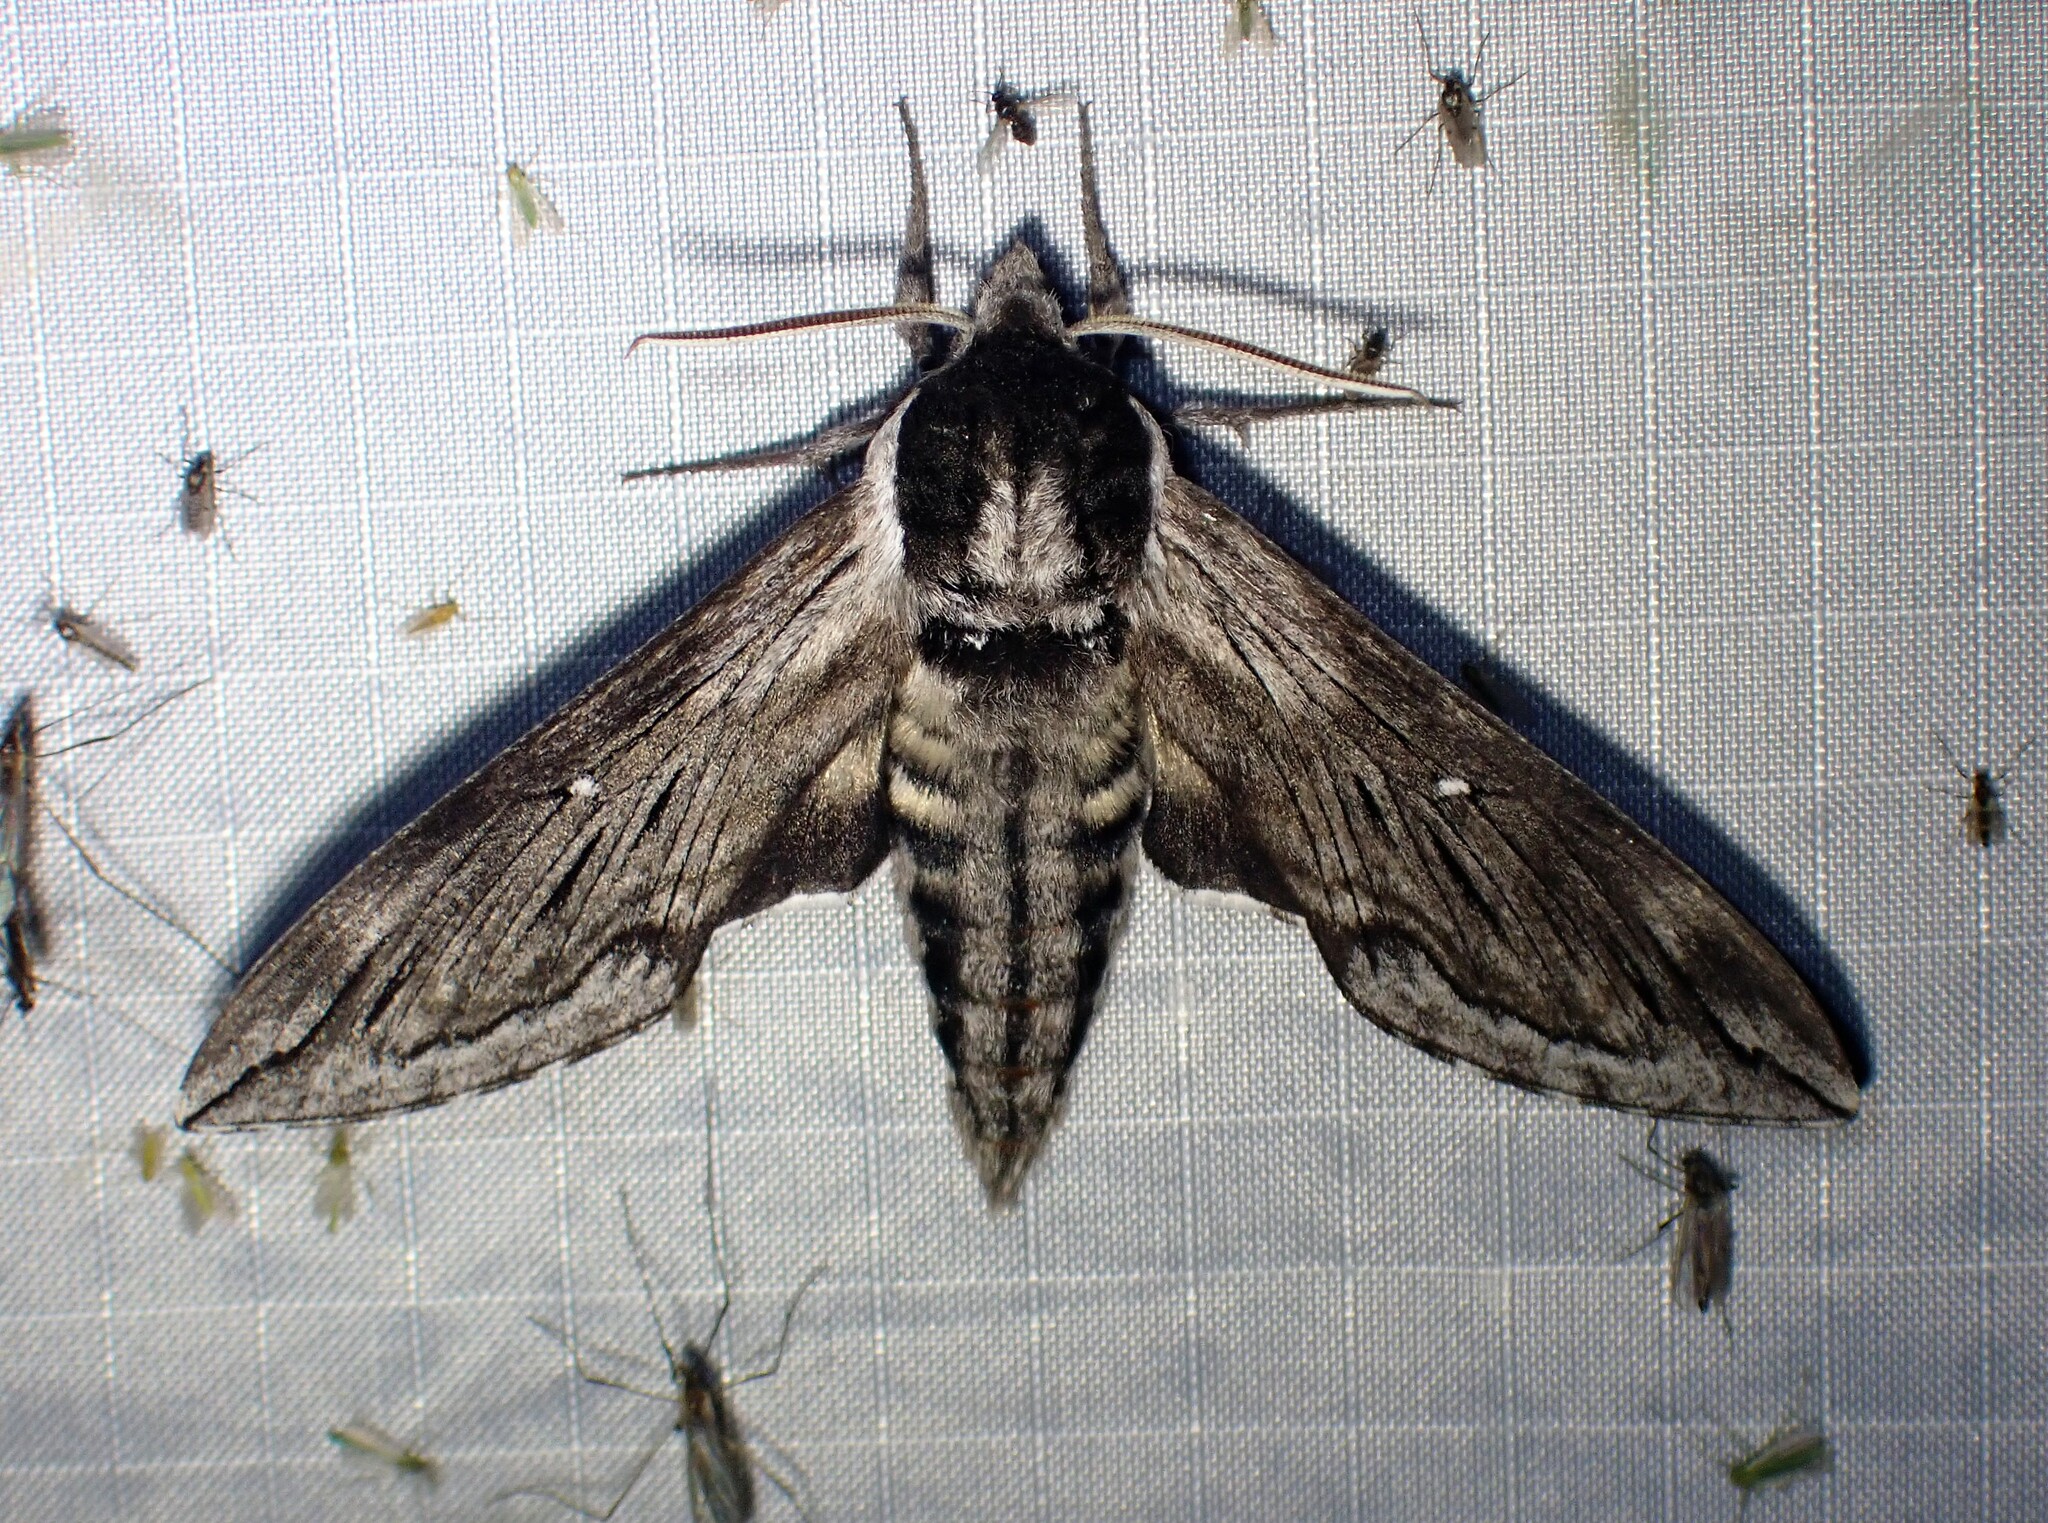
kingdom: Animalia
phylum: Arthropoda
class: Insecta
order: Lepidoptera
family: Sphingidae
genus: Sphinx
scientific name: Sphinx poecila
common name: Northern apple sphinx
